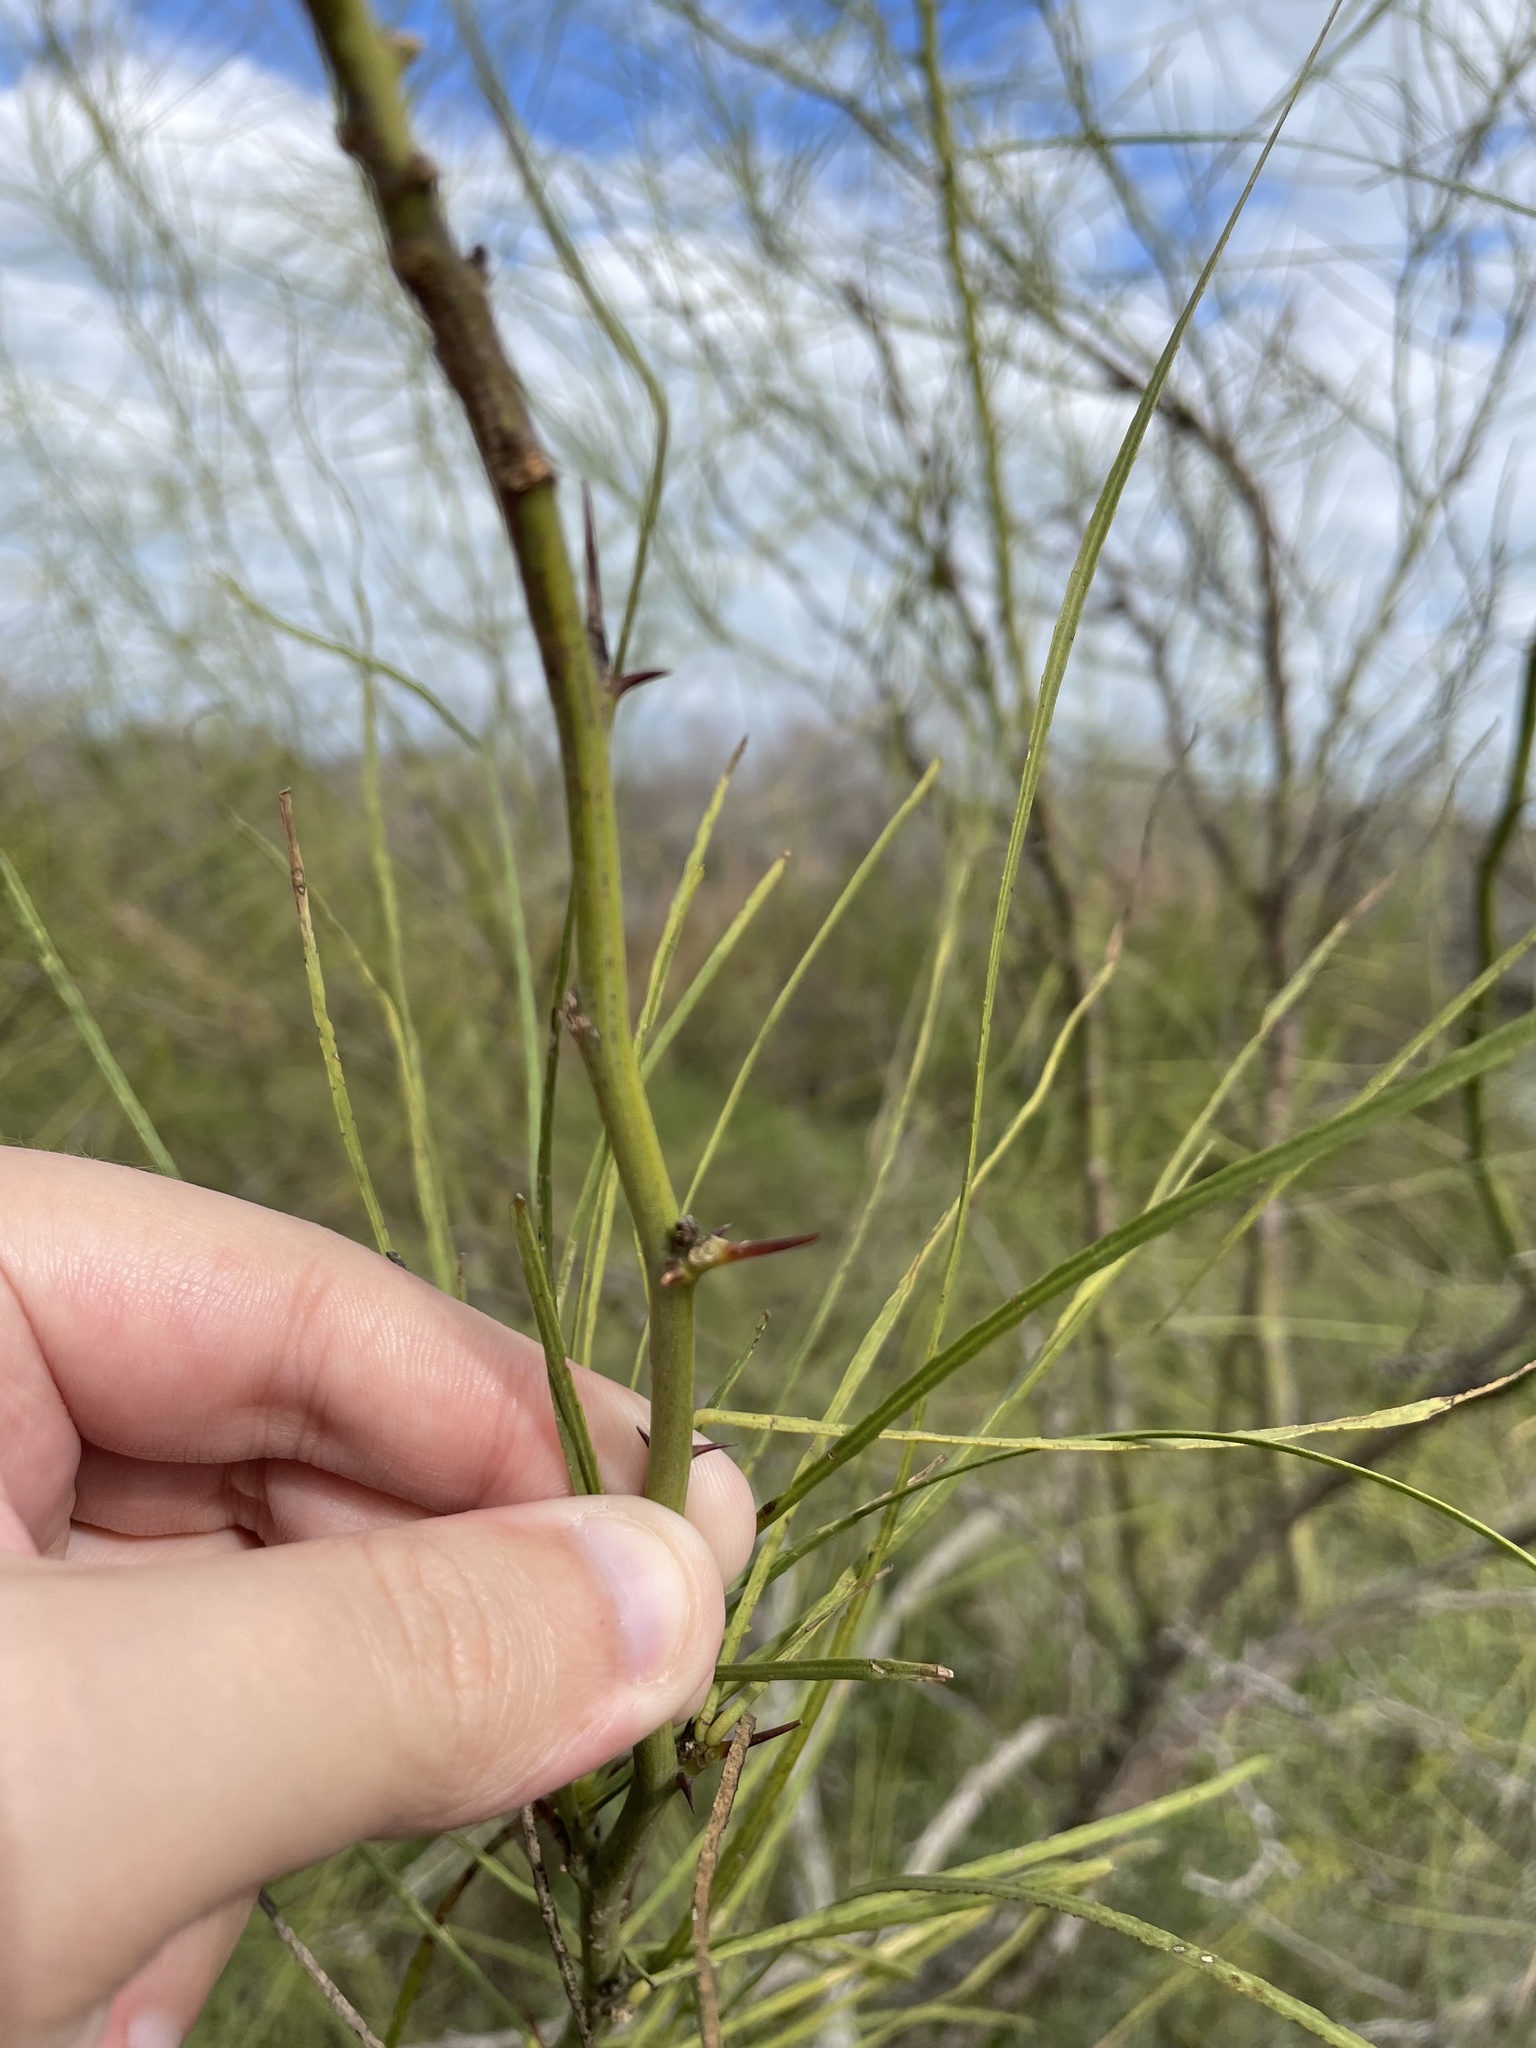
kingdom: Plantae
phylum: Tracheophyta
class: Magnoliopsida
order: Fabales
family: Fabaceae
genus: Parkinsonia
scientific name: Parkinsonia aculeata
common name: Jerusalem thorn
